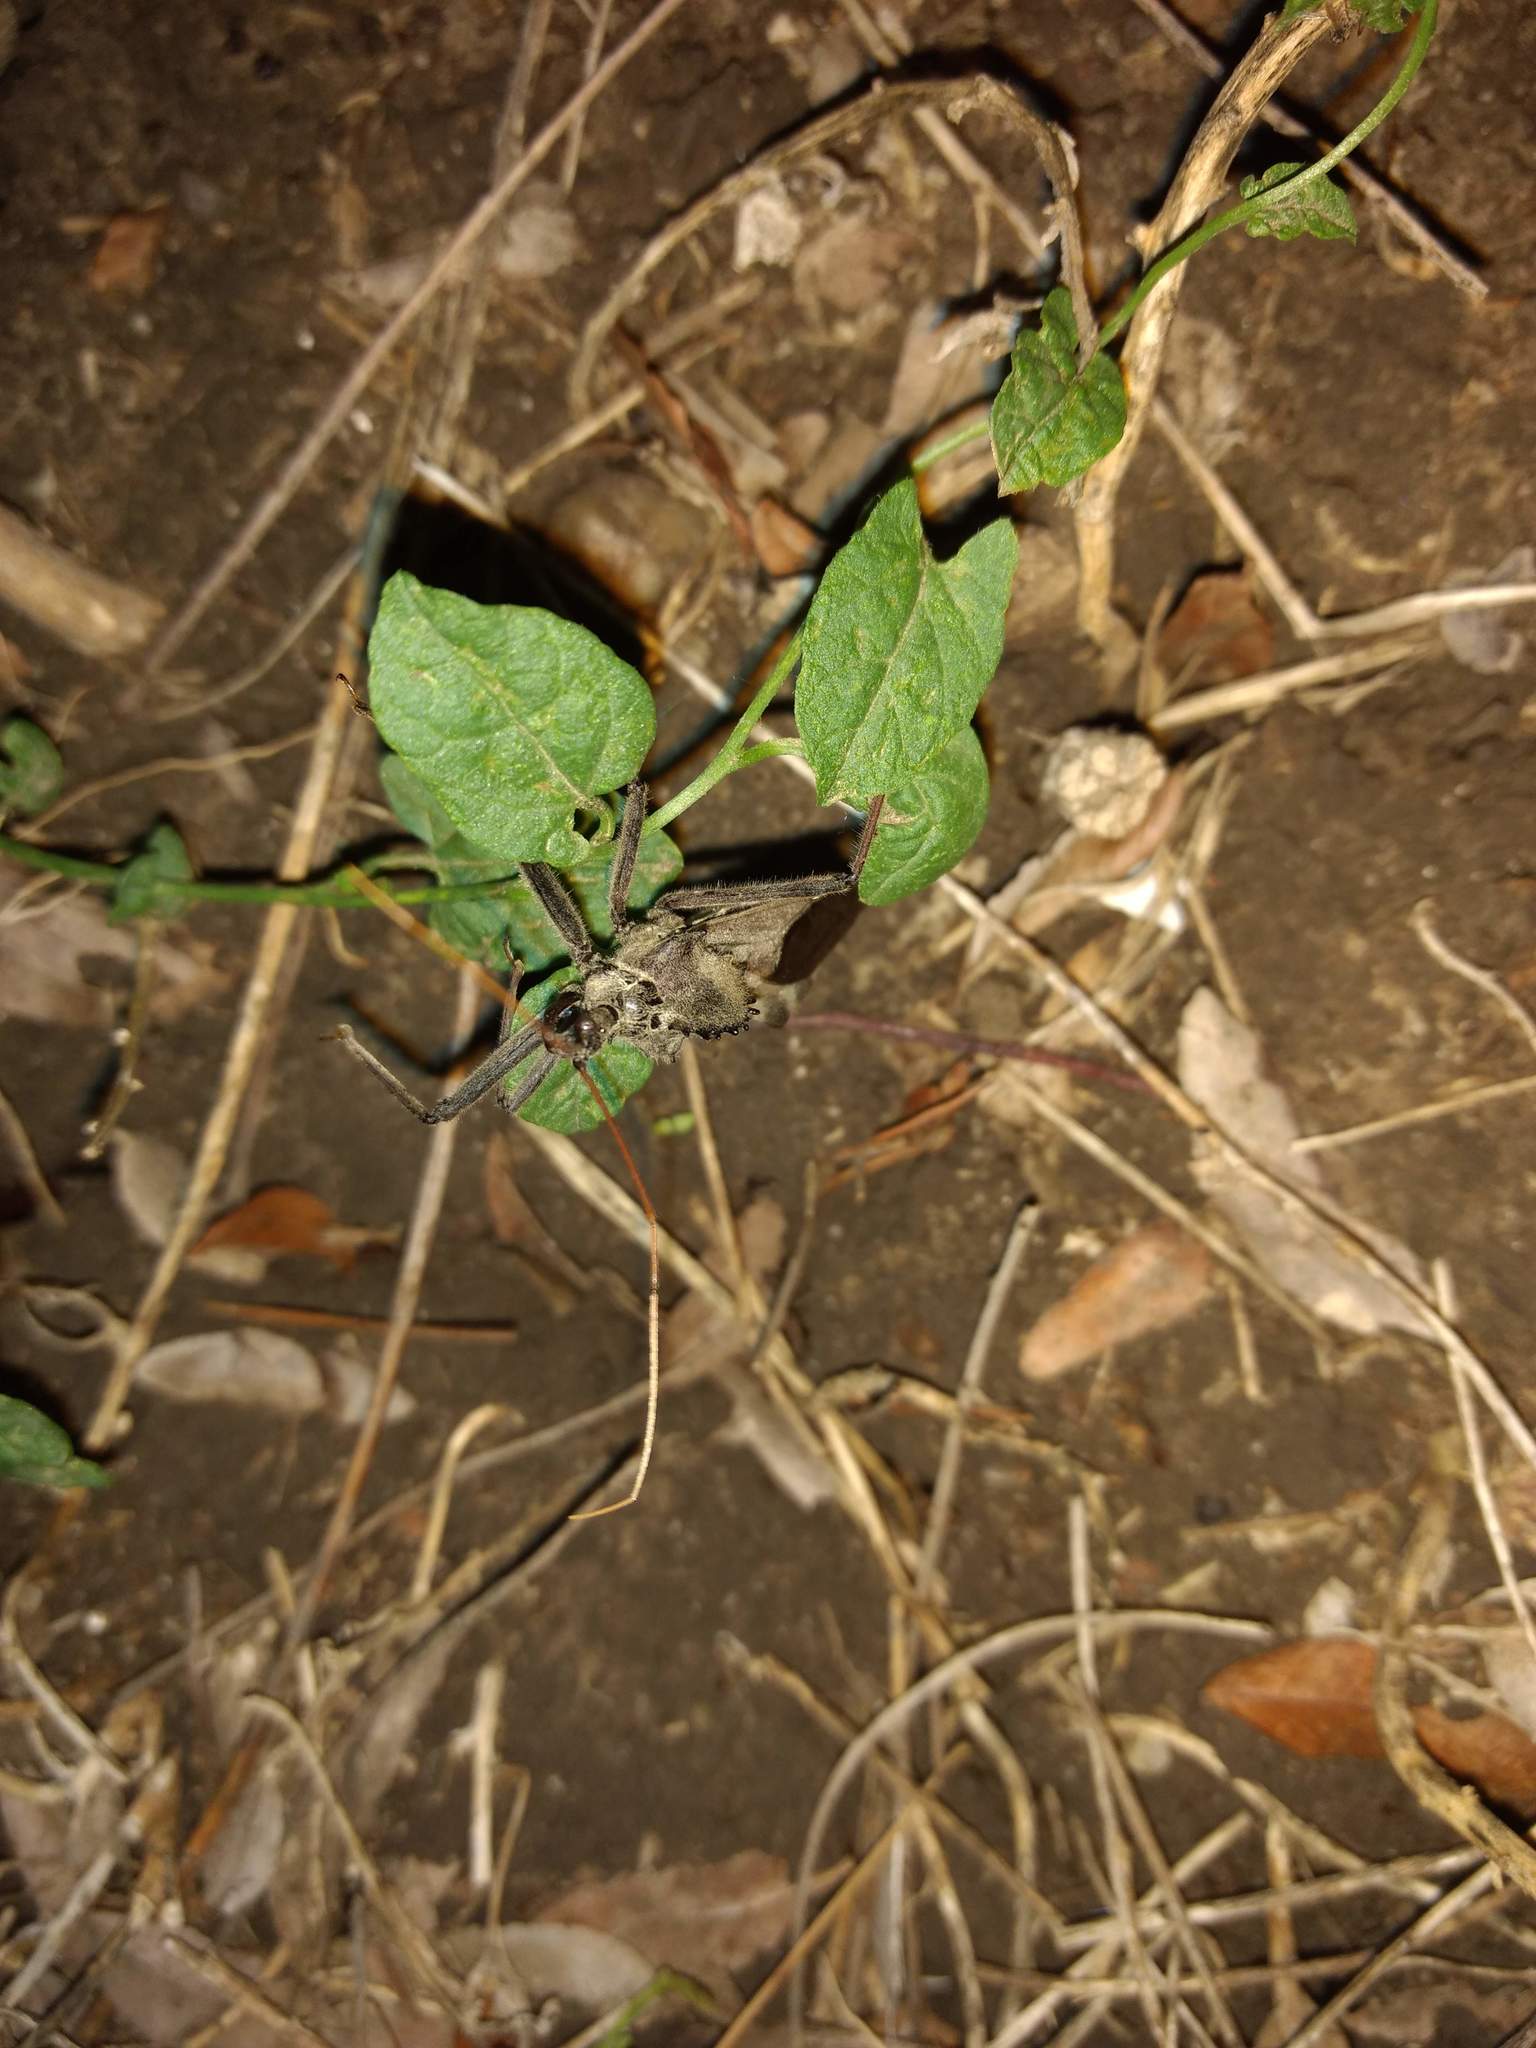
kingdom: Animalia
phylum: Arthropoda
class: Insecta
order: Hemiptera
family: Reduviidae
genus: Arilus
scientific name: Arilus cristatus
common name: North american wheel bug
